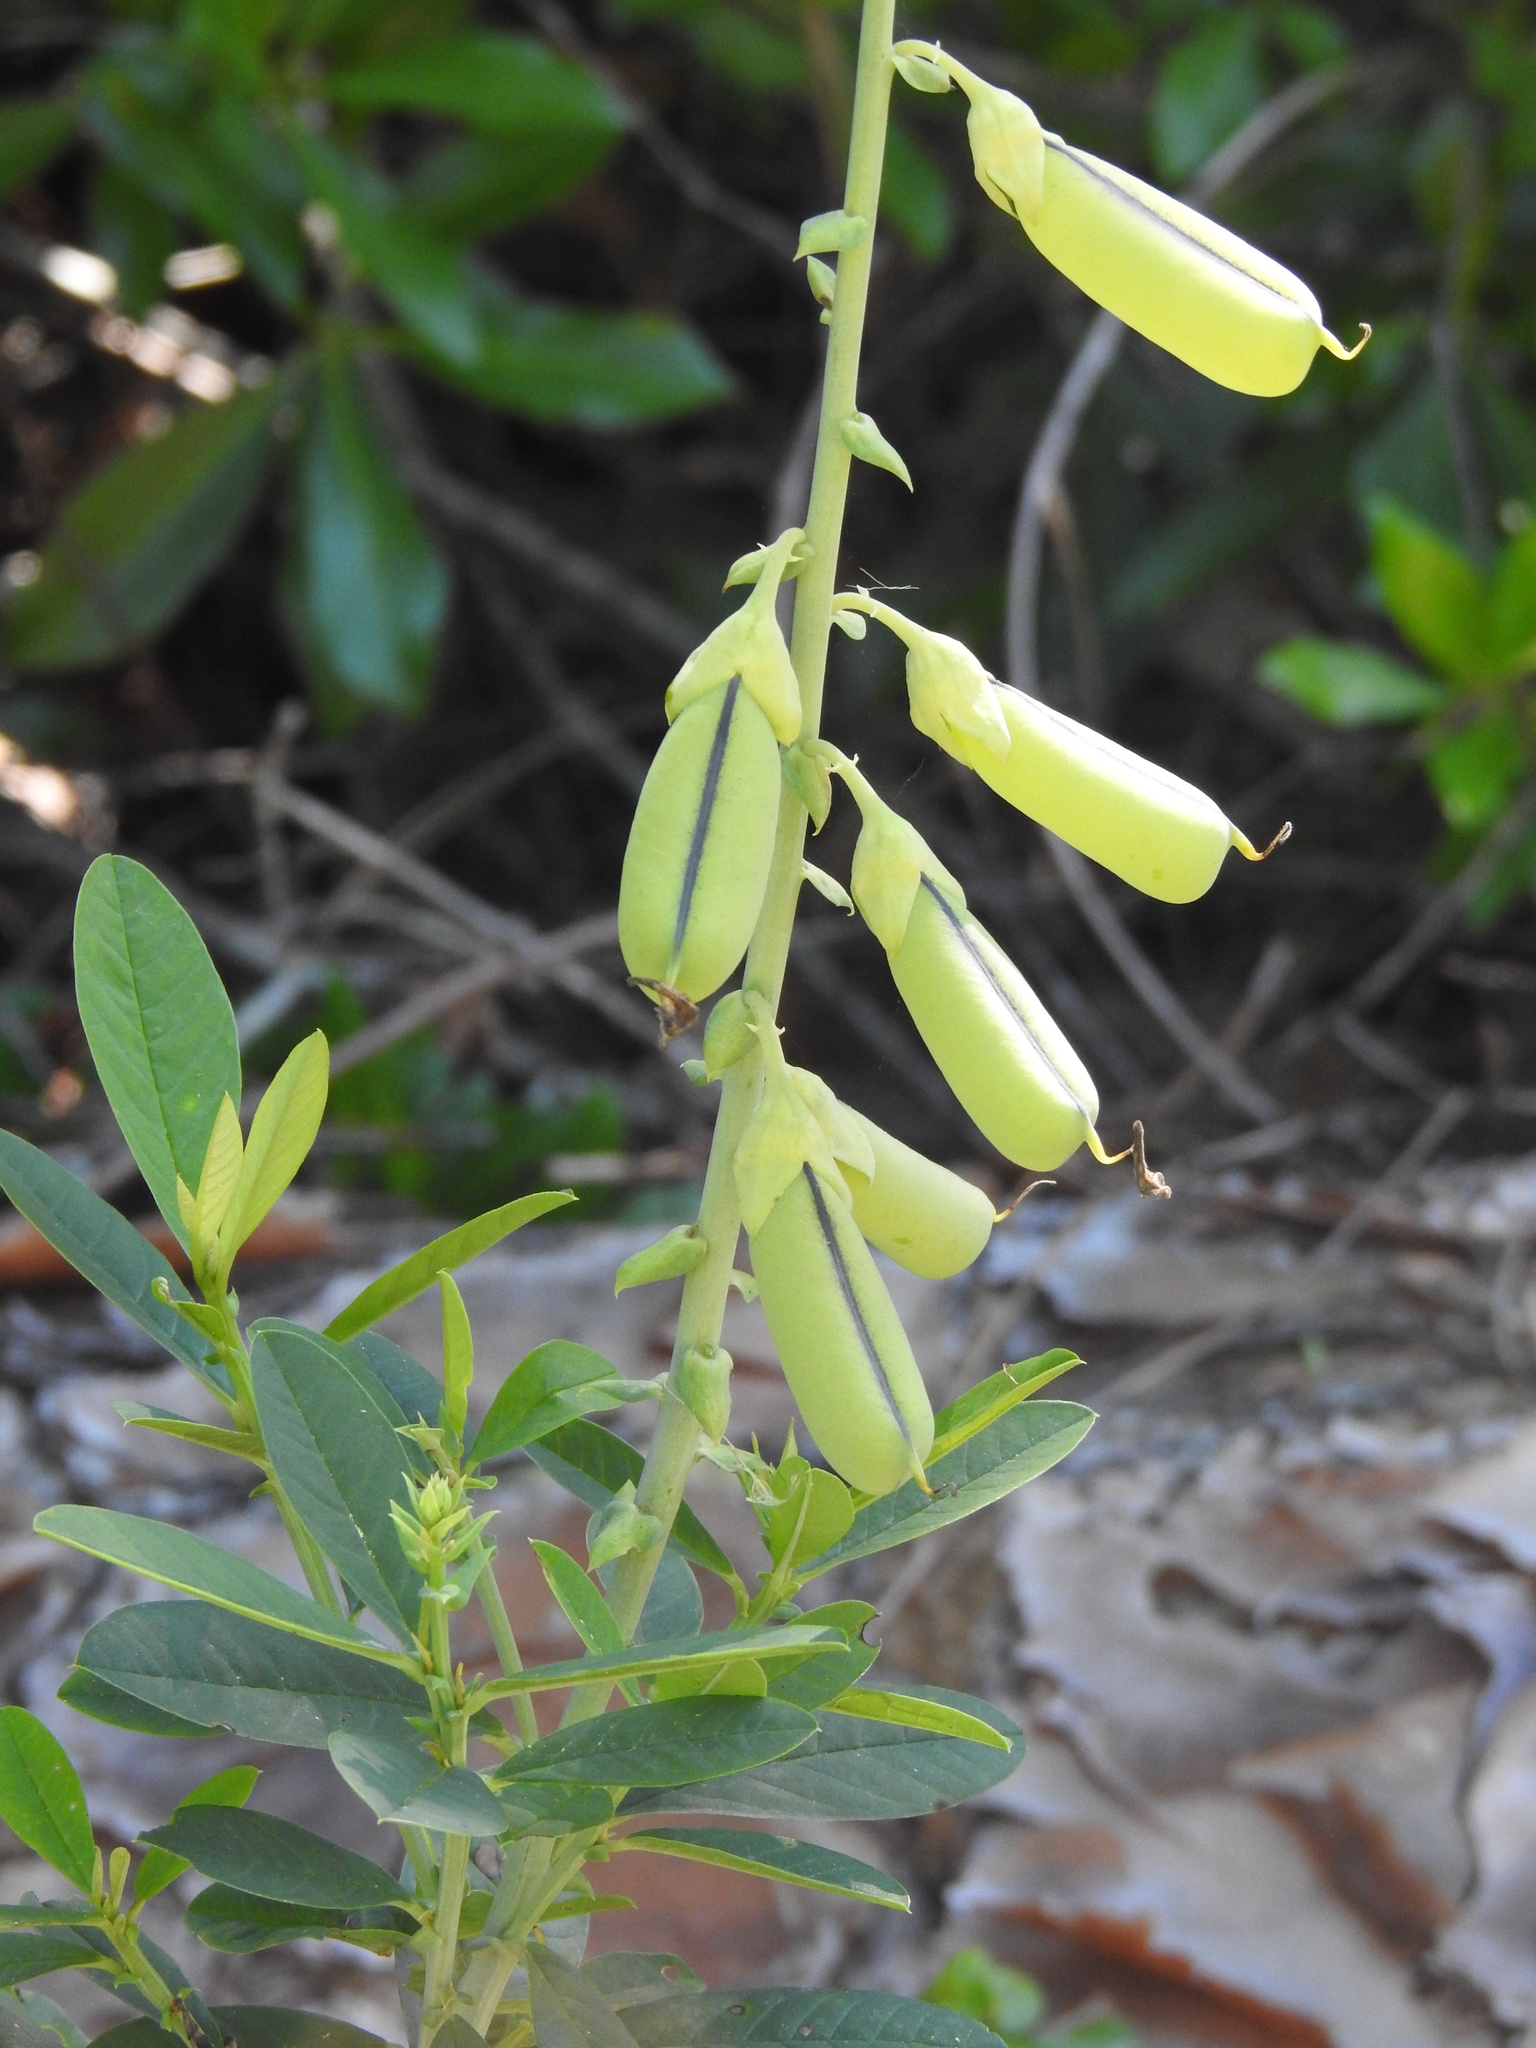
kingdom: Plantae
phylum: Tracheophyta
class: Magnoliopsida
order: Fabales
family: Fabaceae
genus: Crotalaria
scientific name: Crotalaria spectabilis
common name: Showy rattlebox
